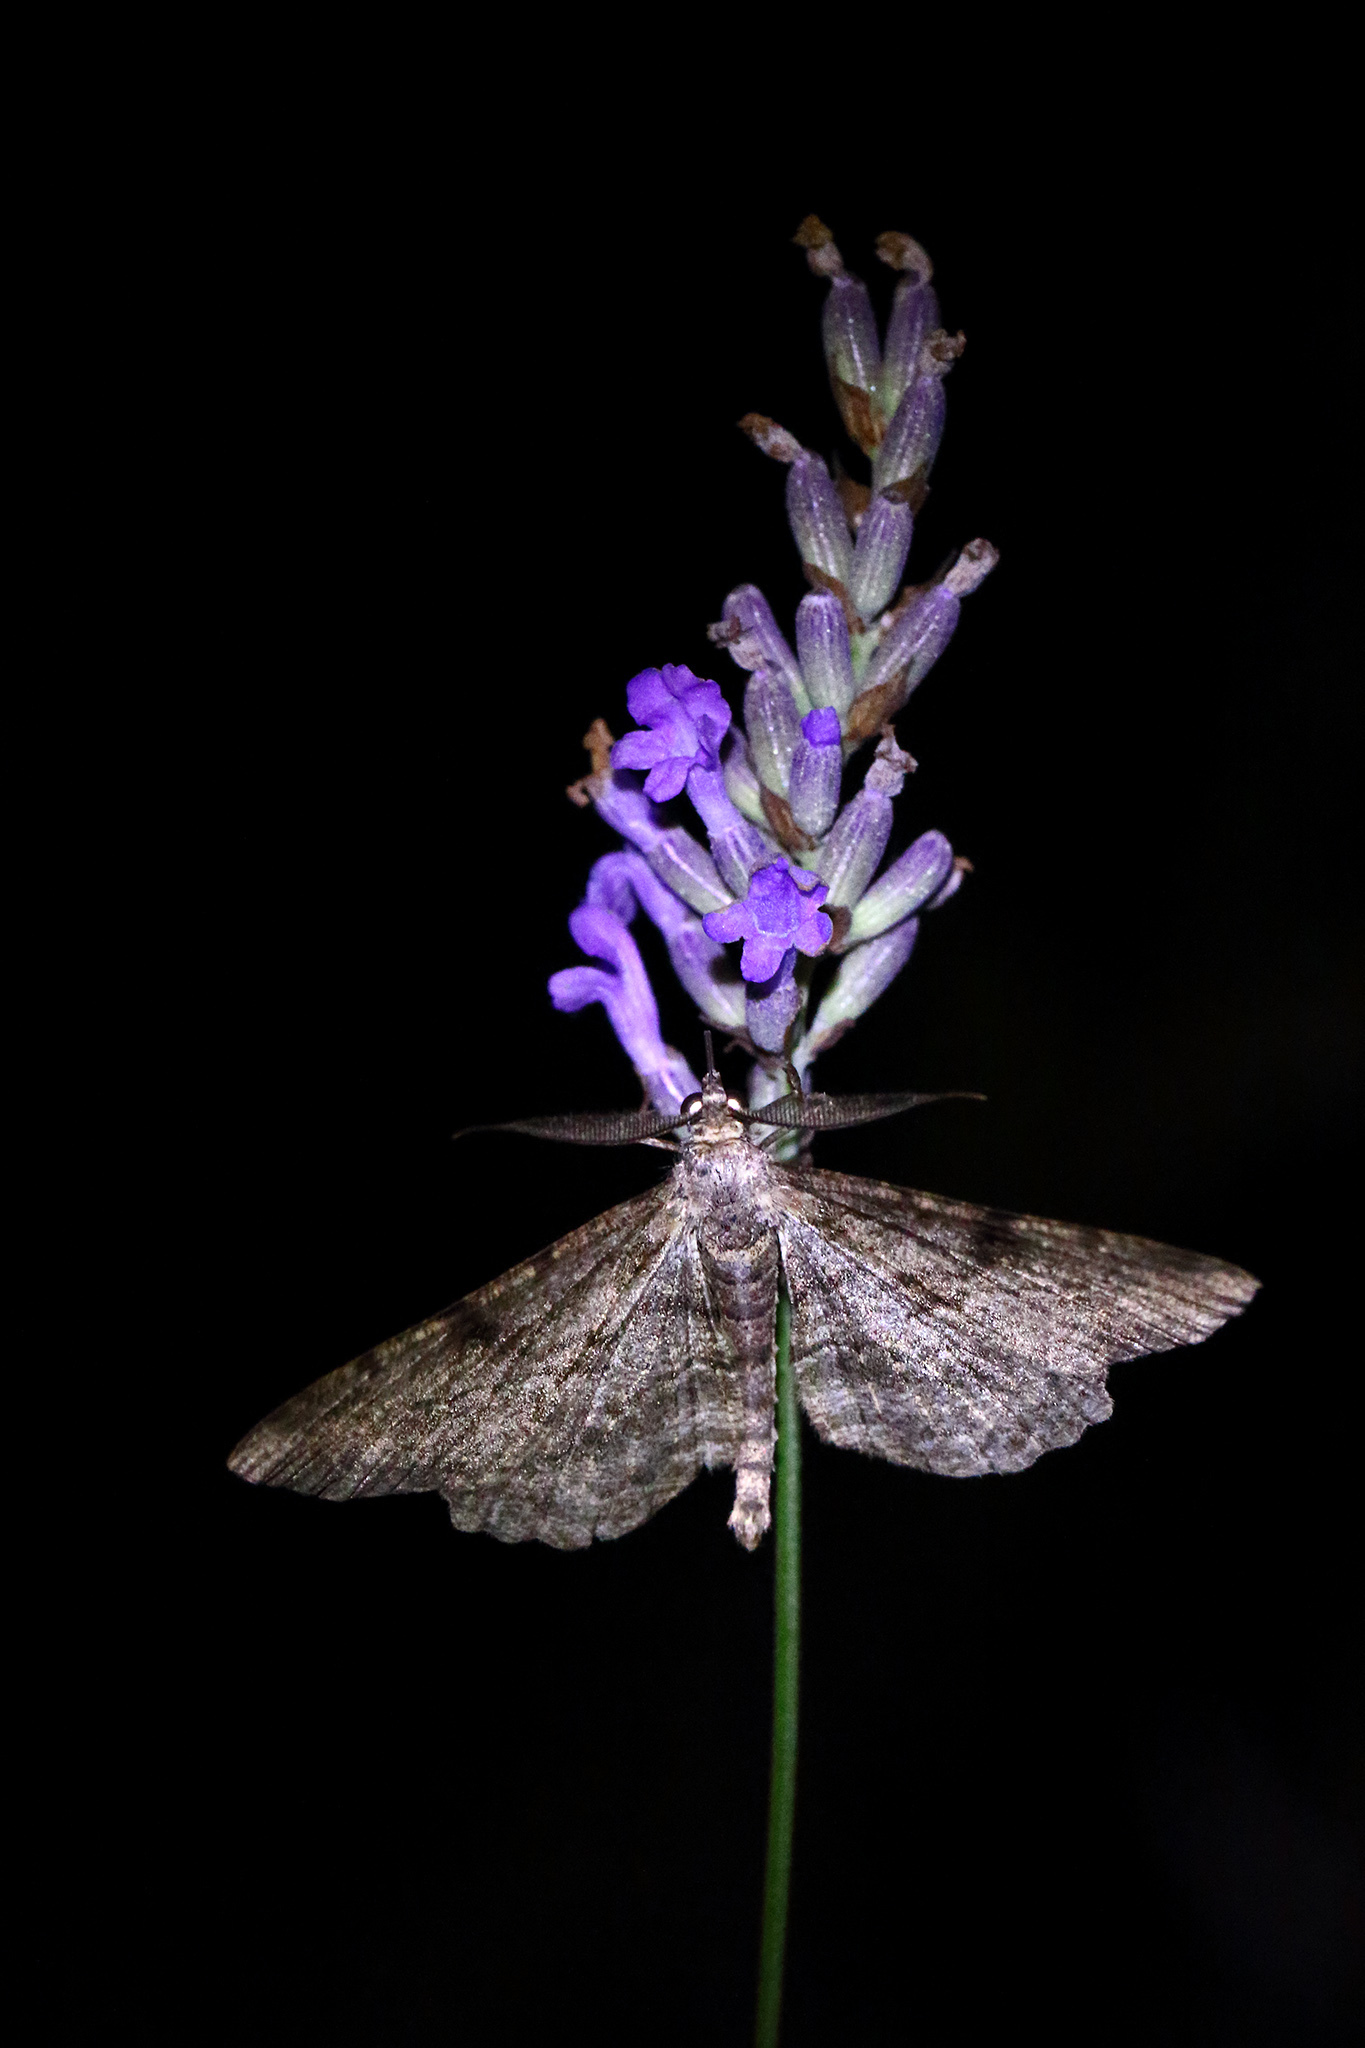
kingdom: Animalia
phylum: Arthropoda
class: Insecta
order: Lepidoptera
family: Geometridae
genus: Peribatodes
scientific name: Peribatodes rhomboidaria
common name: Willow beauty
